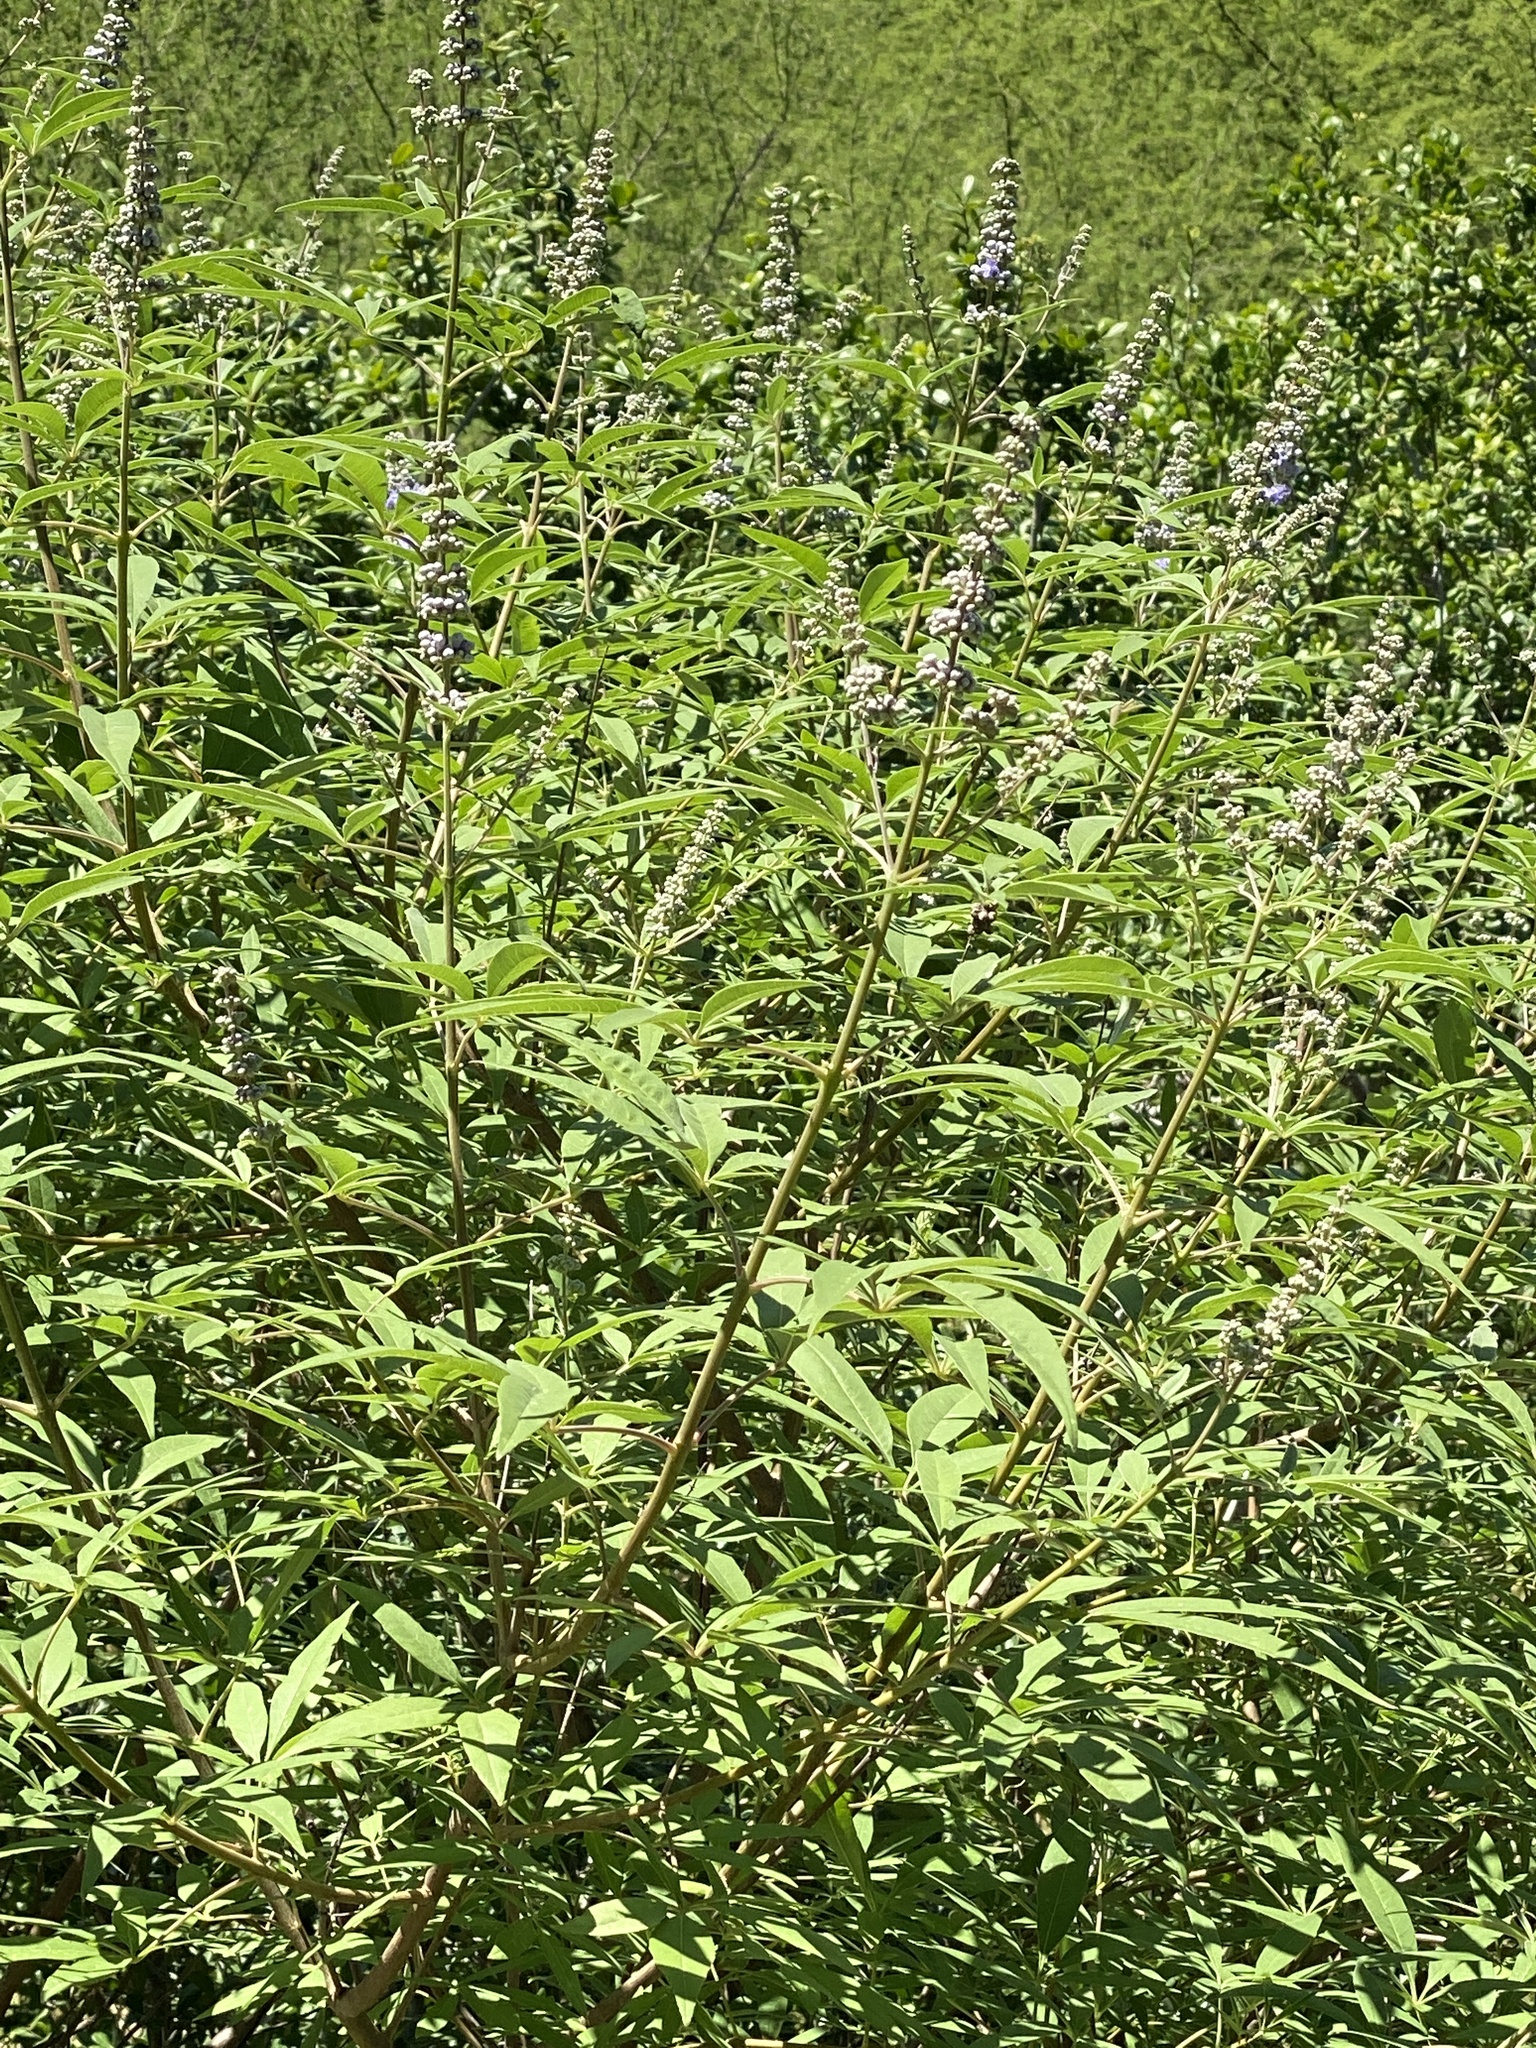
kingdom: Plantae
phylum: Tracheophyta
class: Magnoliopsida
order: Lamiales
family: Lamiaceae
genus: Vitex
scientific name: Vitex agnus-castus
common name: Chasteberry
